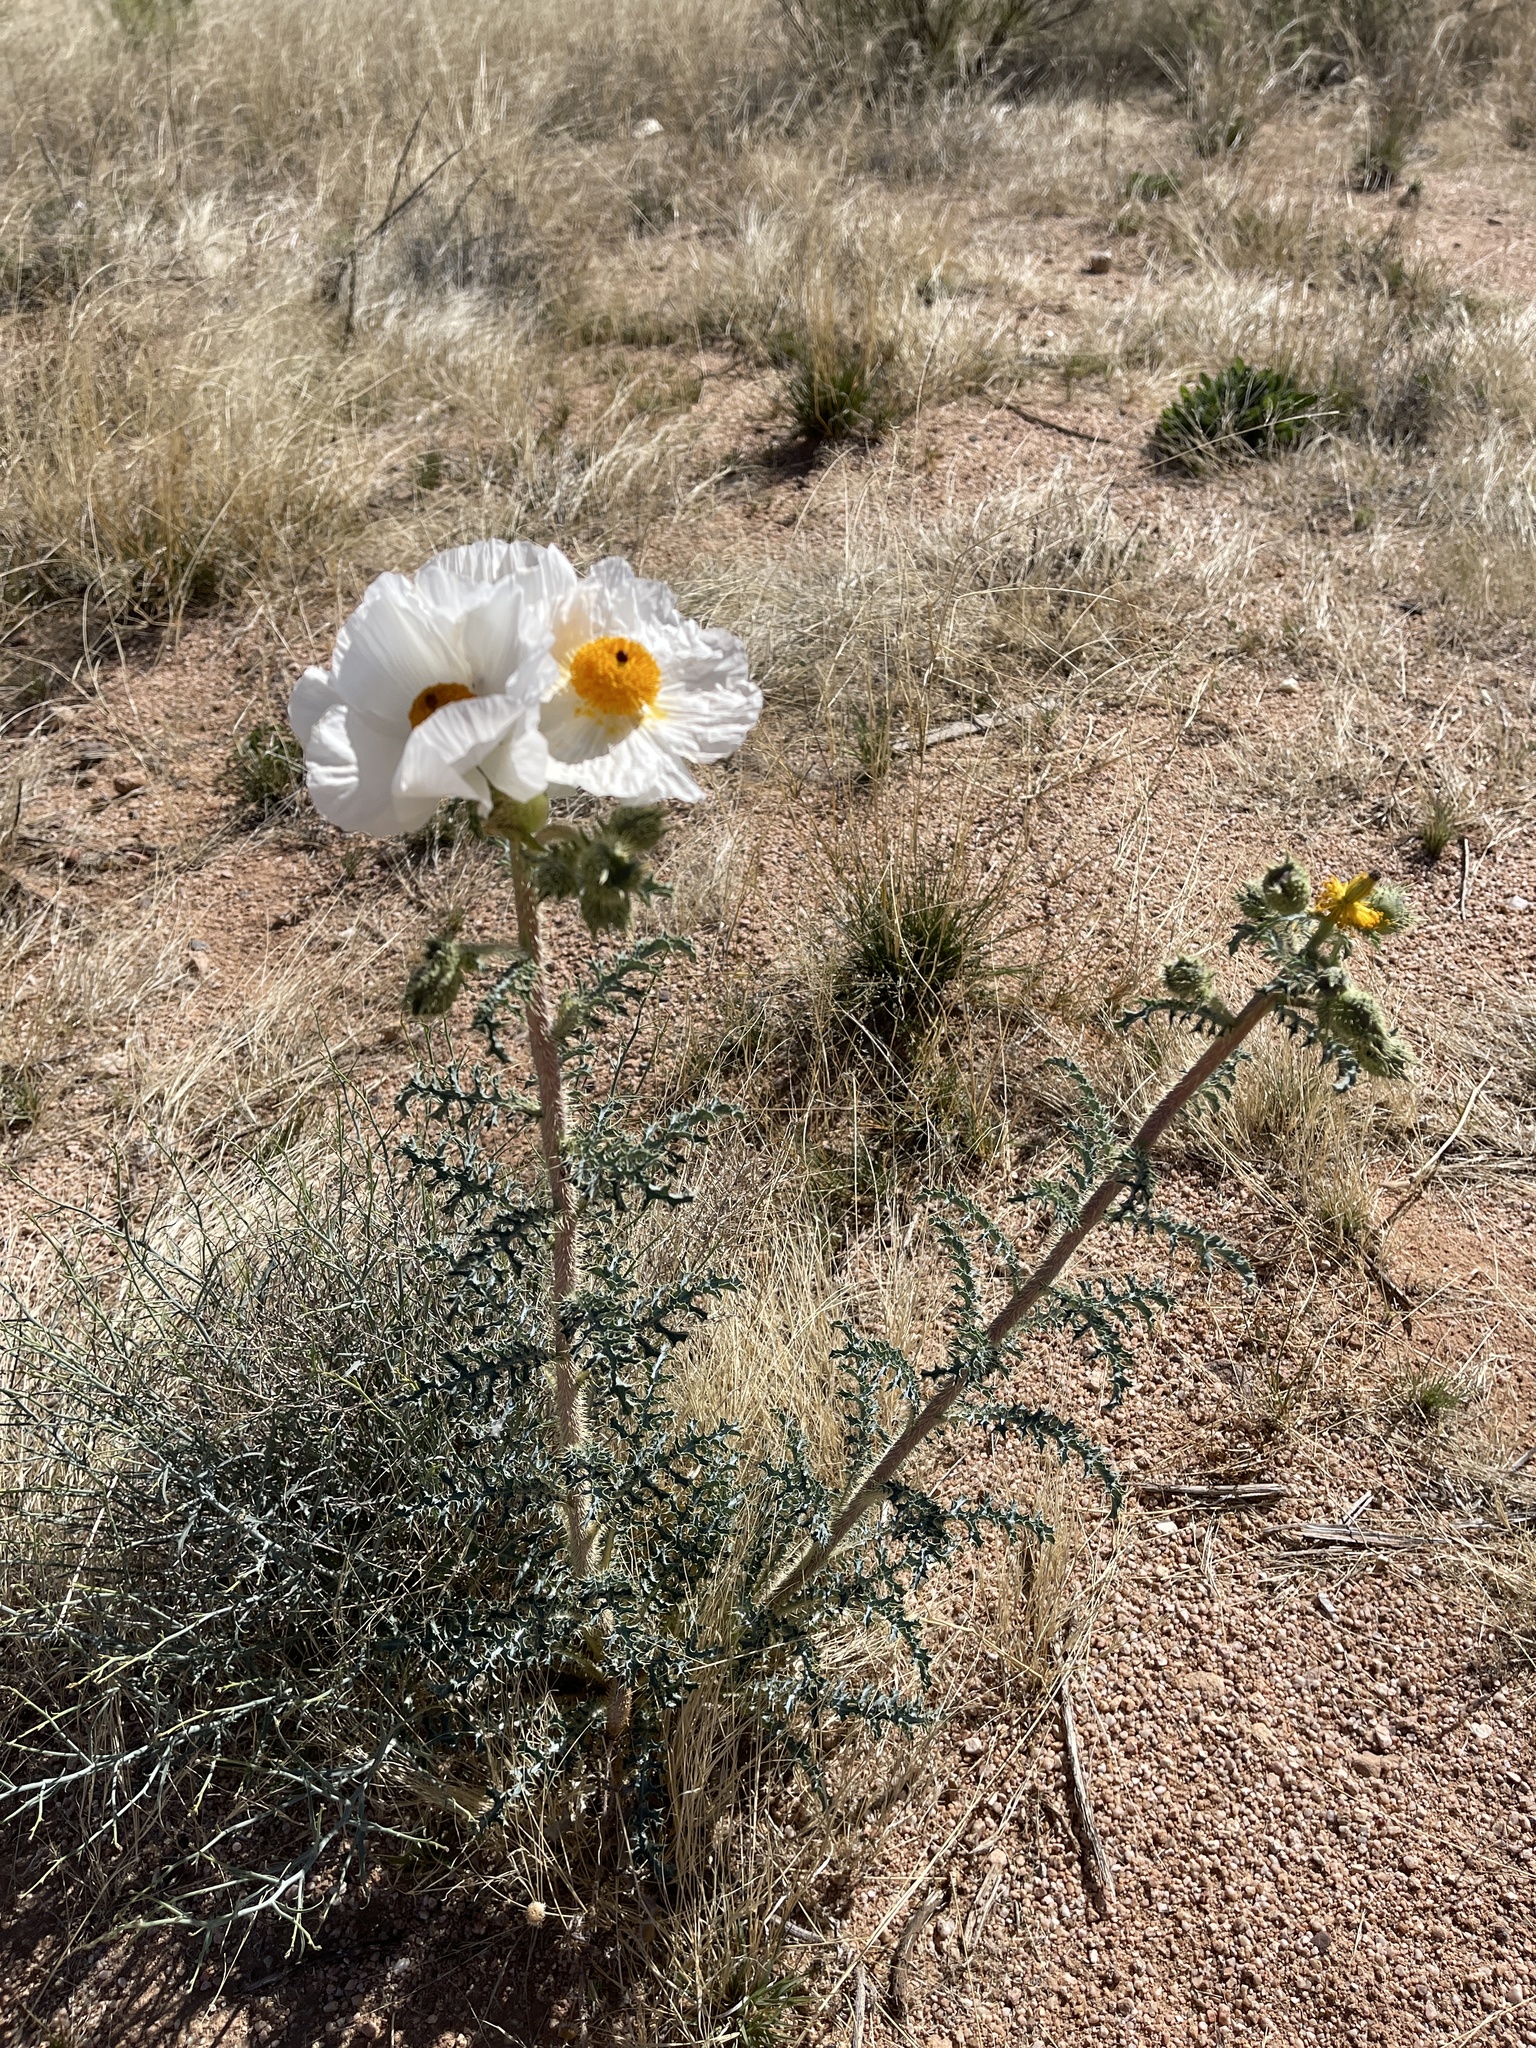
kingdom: Plantae
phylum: Tracheophyta
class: Magnoliopsida
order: Ranunculales
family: Papaveraceae
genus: Argemone
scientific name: Argemone pleiacantha
